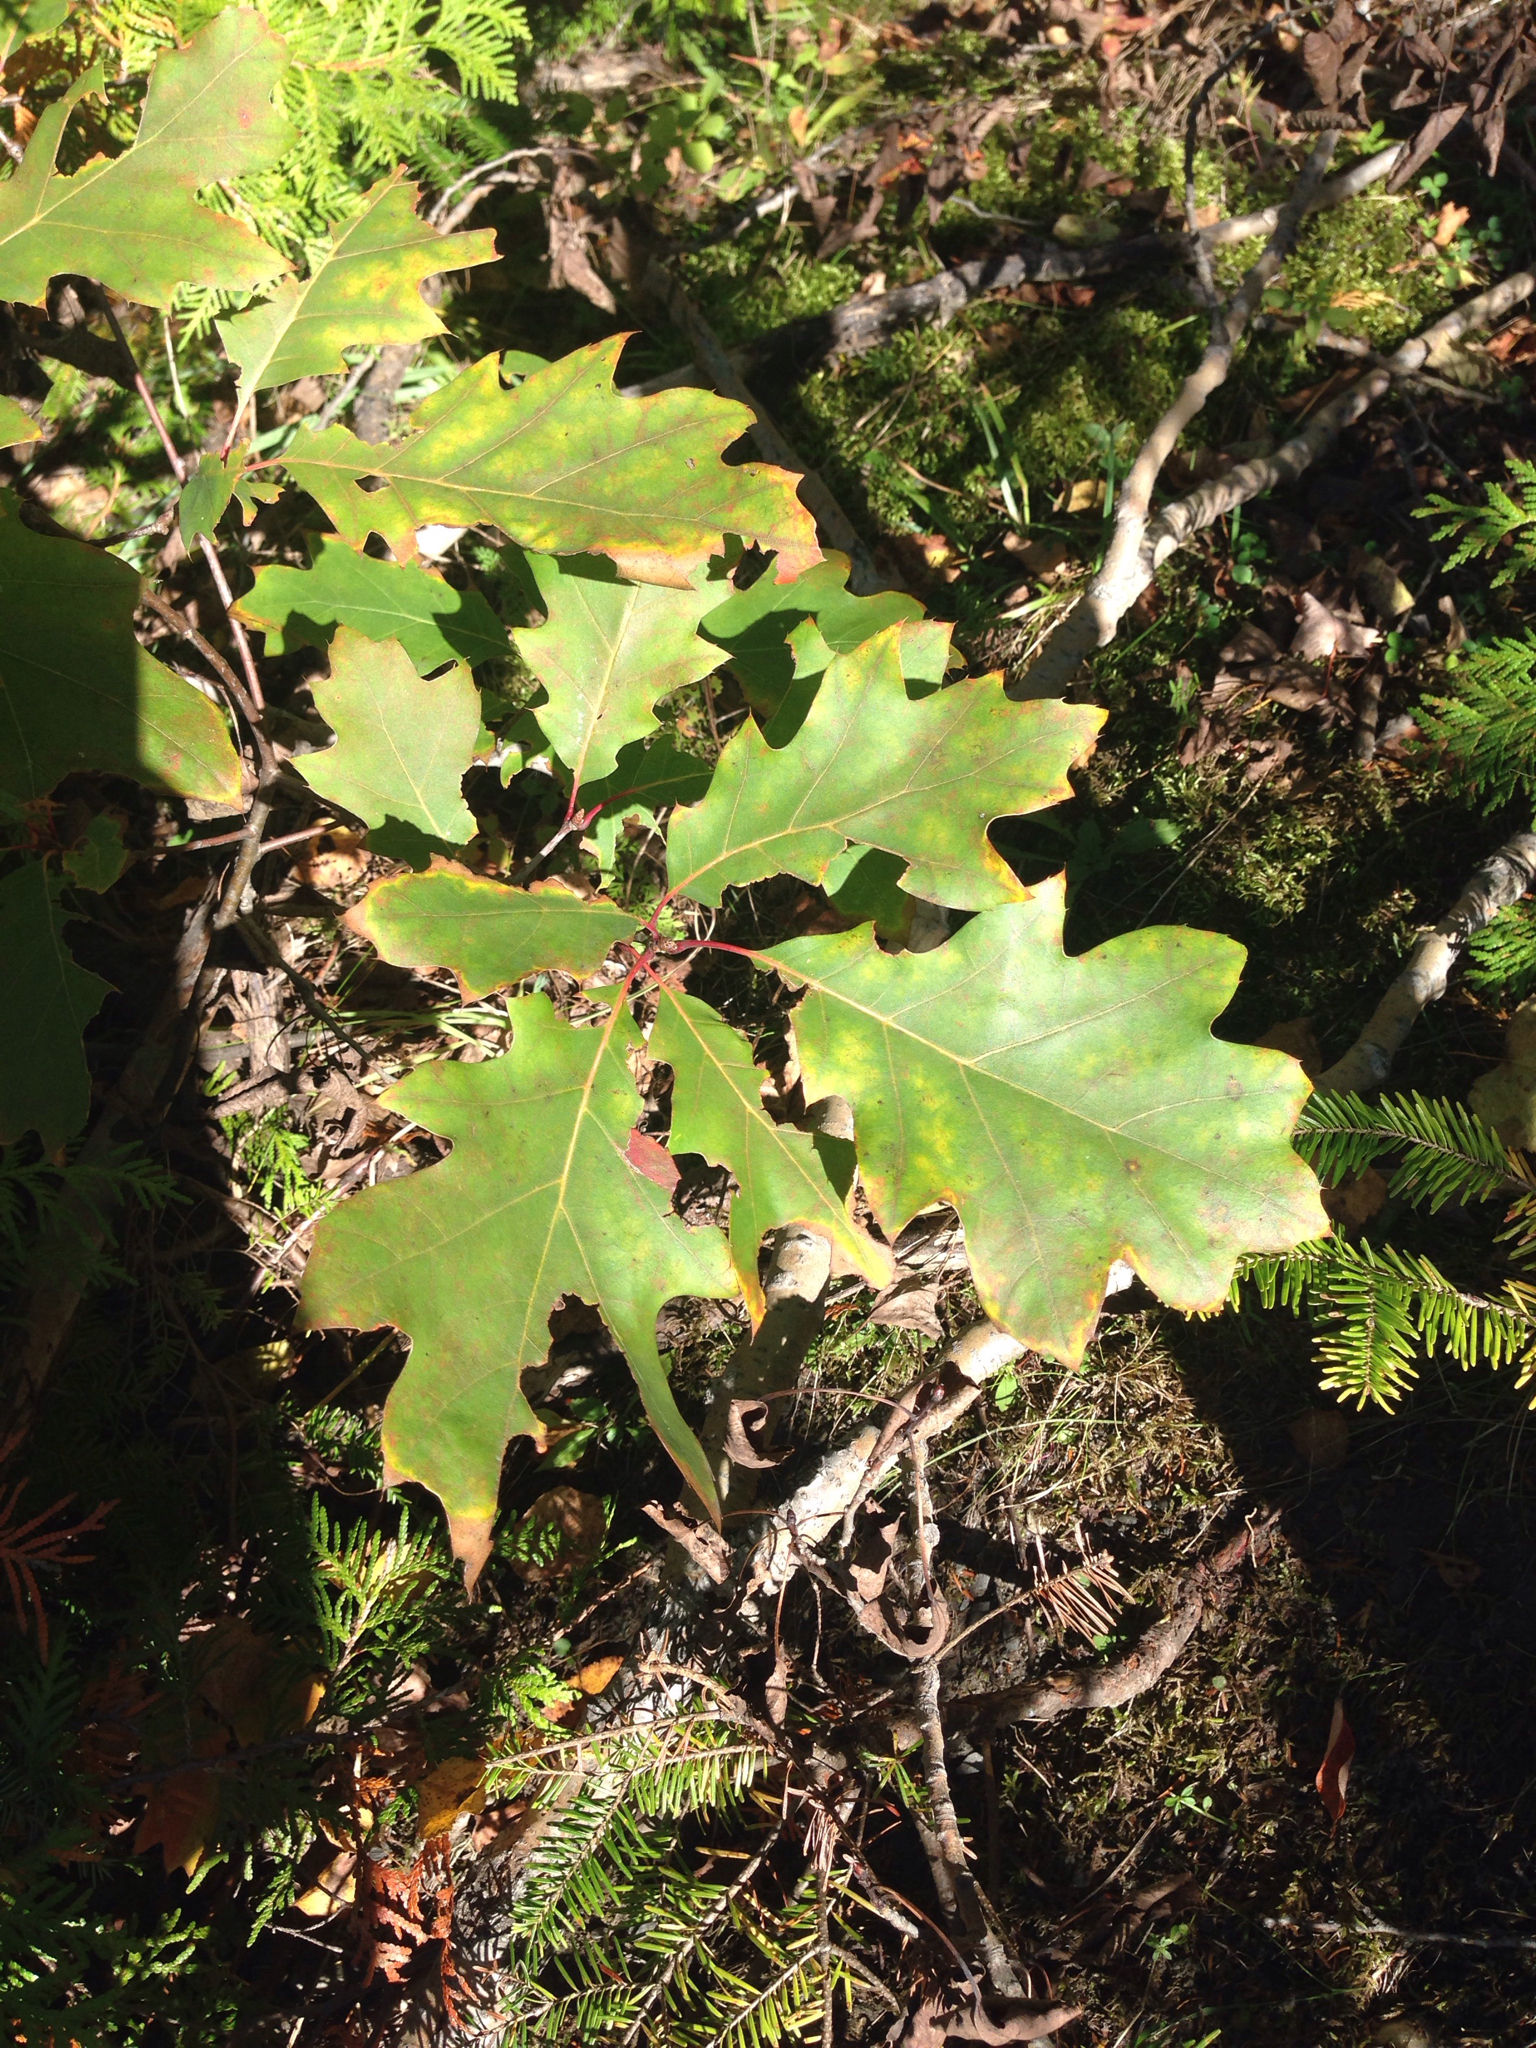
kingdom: Plantae
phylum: Tracheophyta
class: Magnoliopsida
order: Fagales
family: Fagaceae
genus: Quercus
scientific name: Quercus rubra
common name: Red oak
